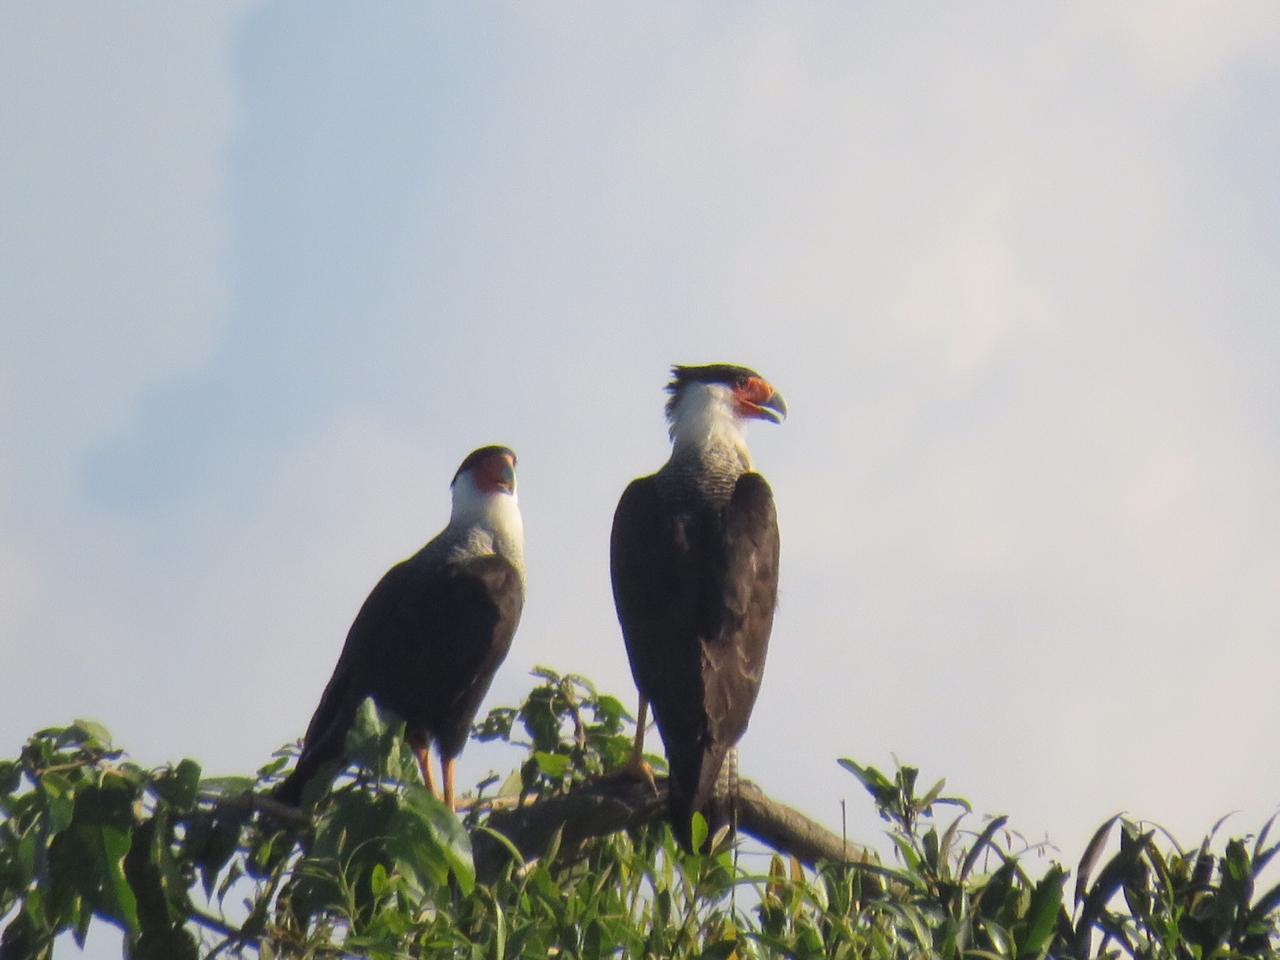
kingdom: Animalia
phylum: Chordata
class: Aves
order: Falconiformes
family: Falconidae
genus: Caracara
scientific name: Caracara plancus
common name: Southern caracara
